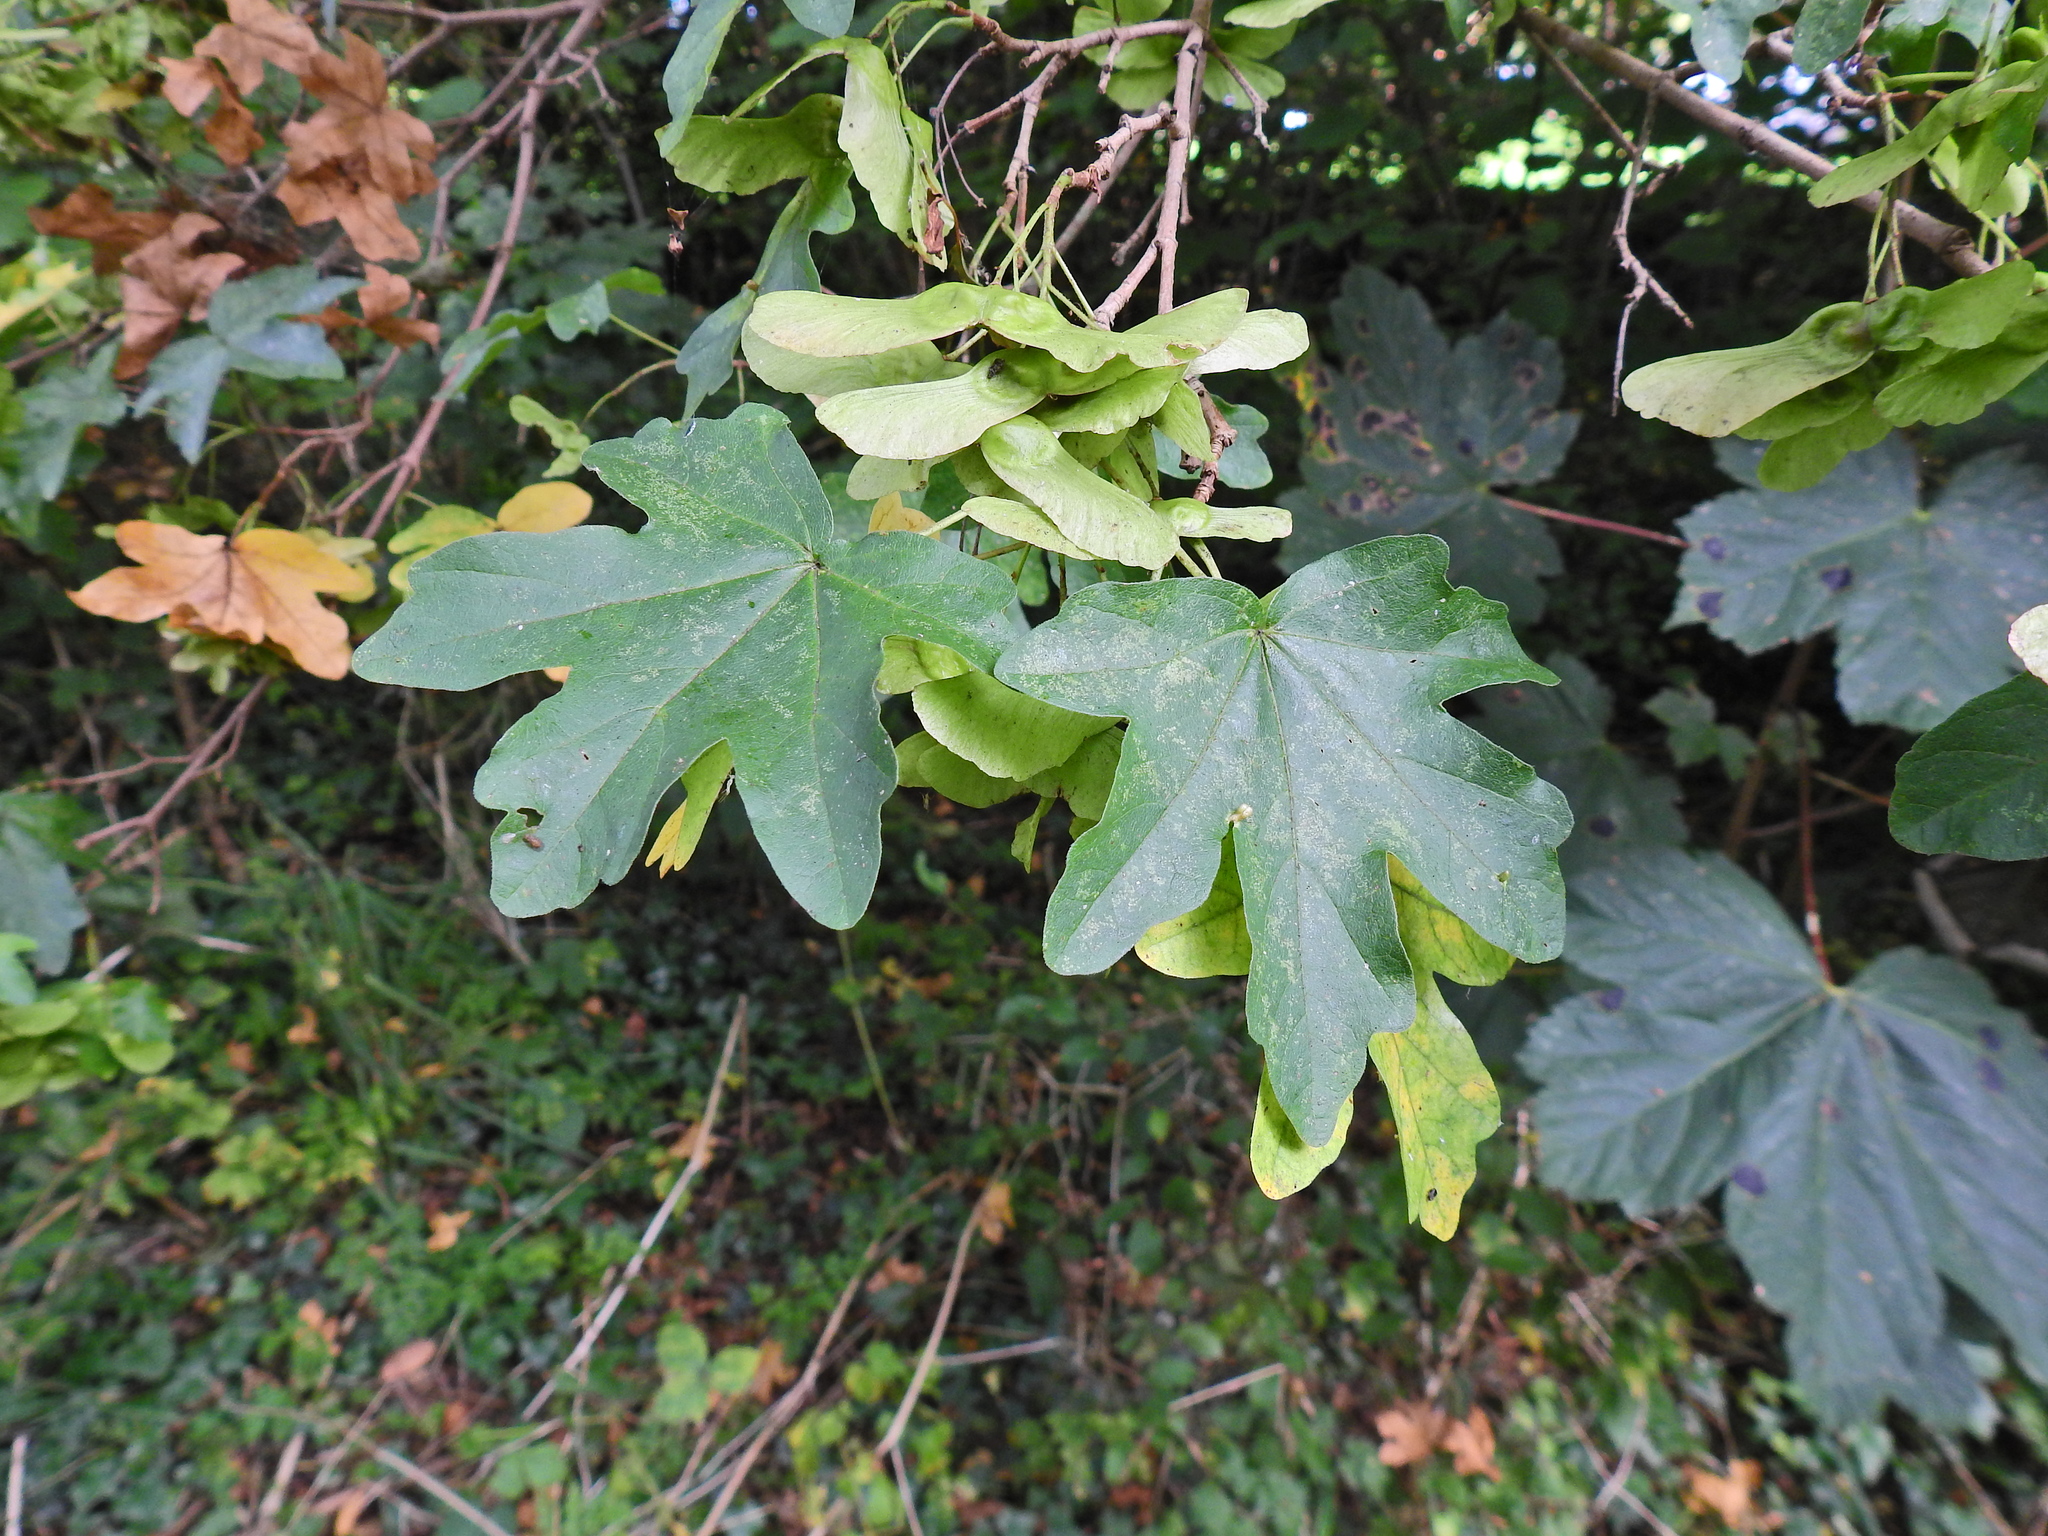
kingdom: Plantae
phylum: Tracheophyta
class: Magnoliopsida
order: Sapindales
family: Sapindaceae
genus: Acer
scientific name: Acer campestre
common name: Field maple
